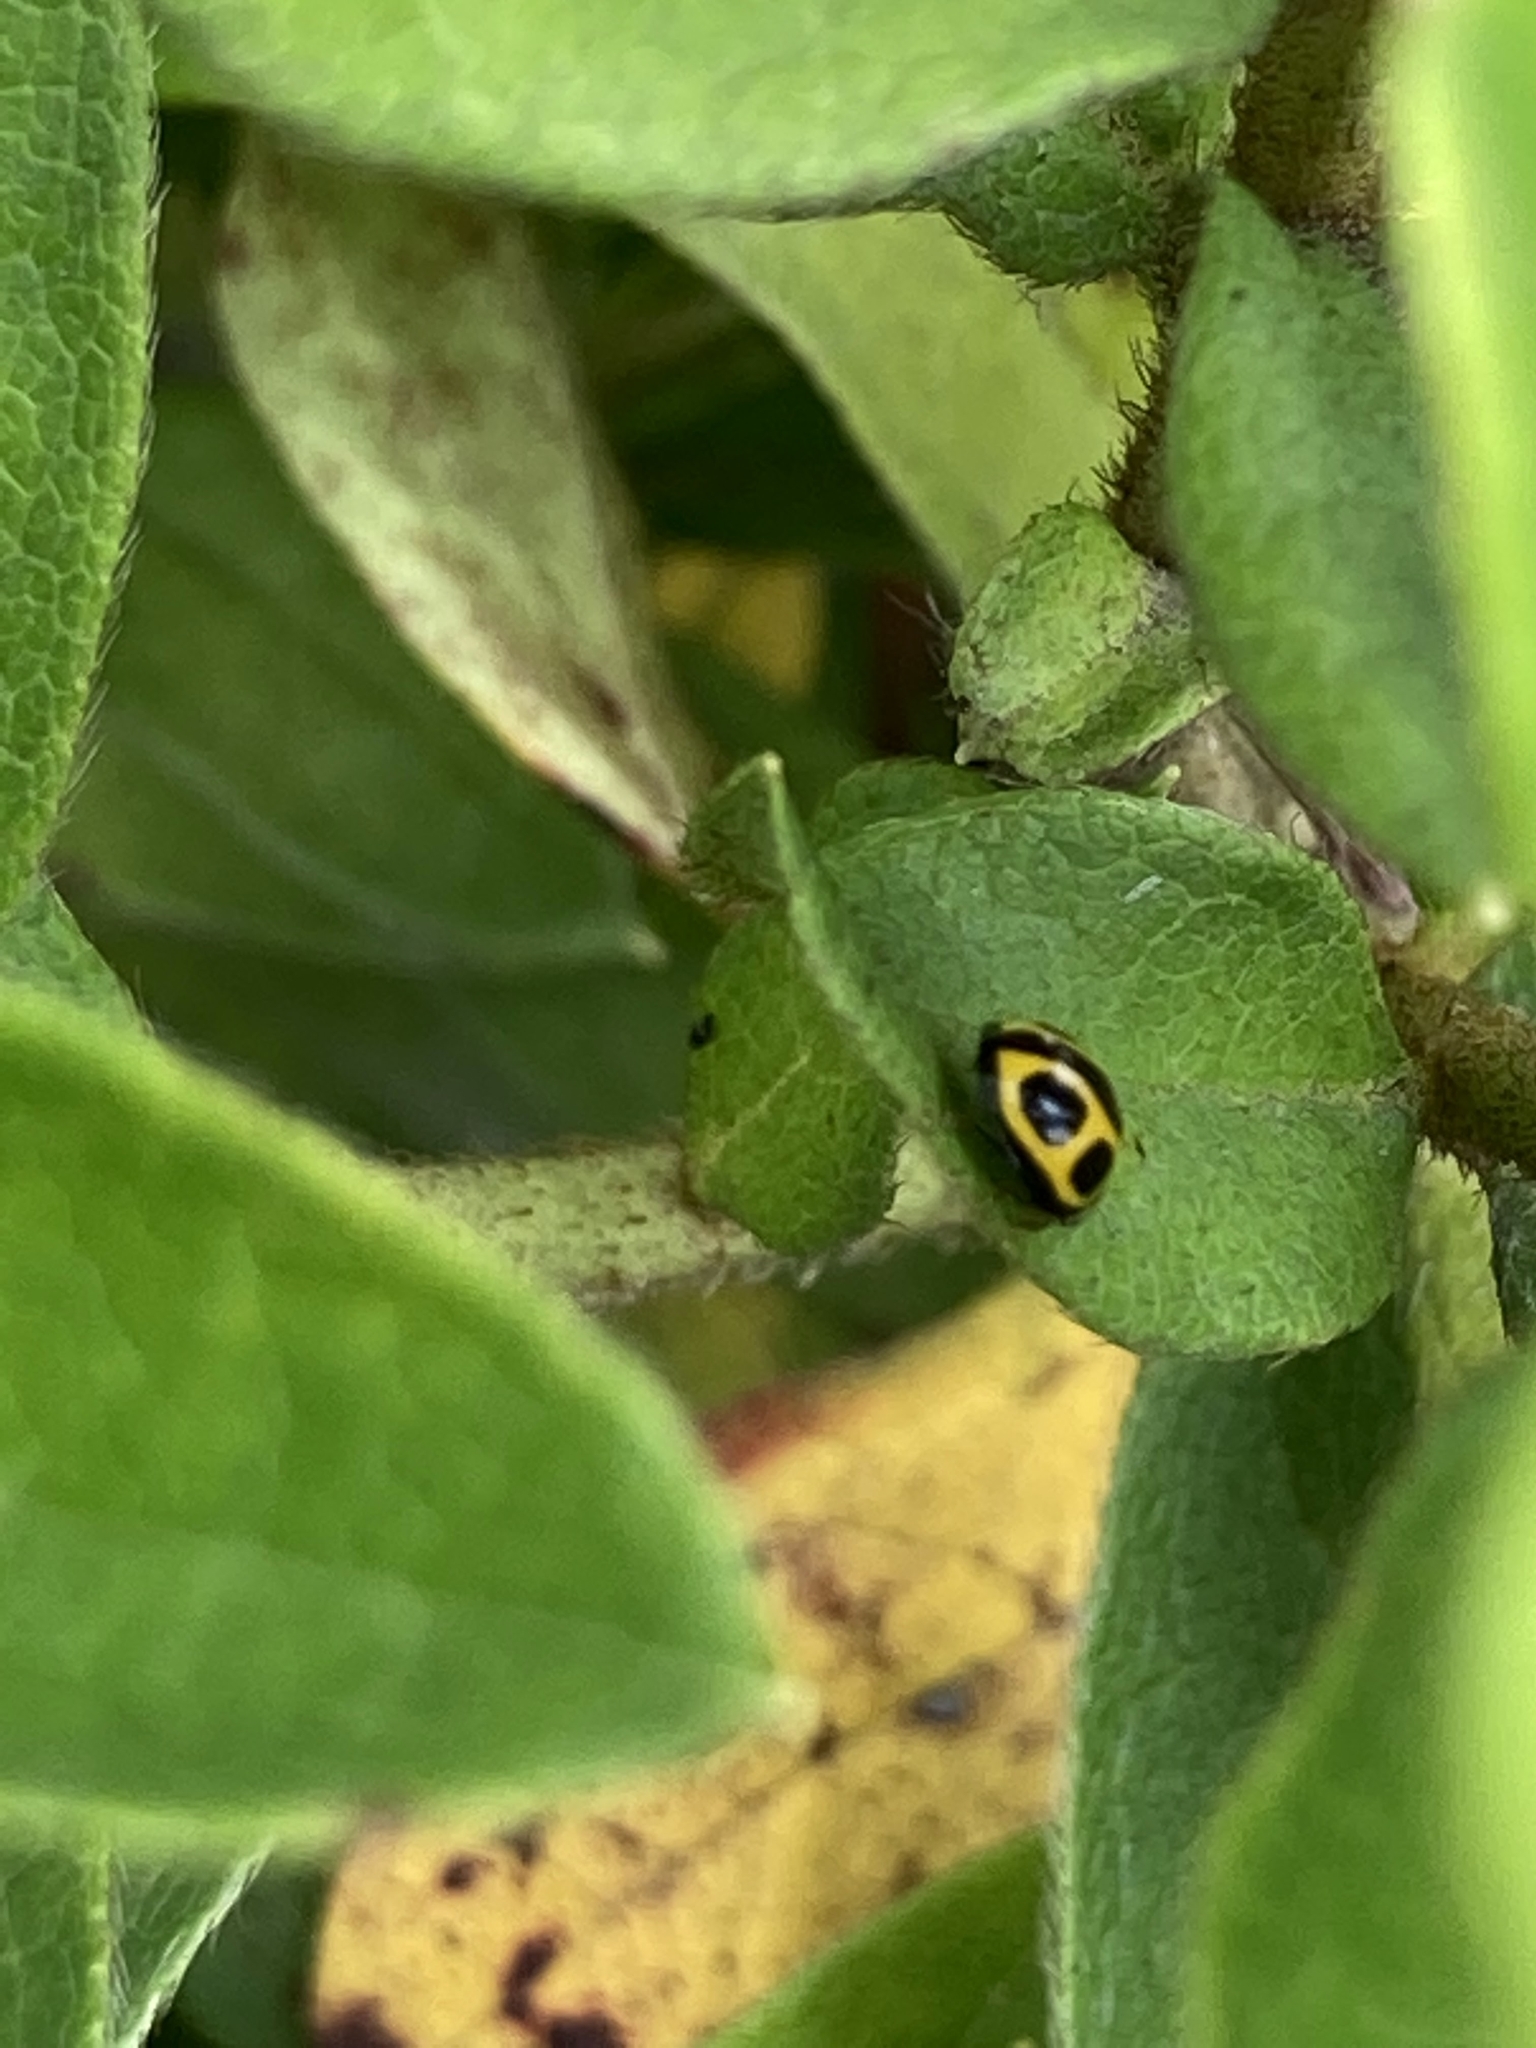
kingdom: Animalia
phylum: Arthropoda
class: Insecta
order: Coleoptera
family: Coccinellidae
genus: Oenopia
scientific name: Oenopia kirbyi
